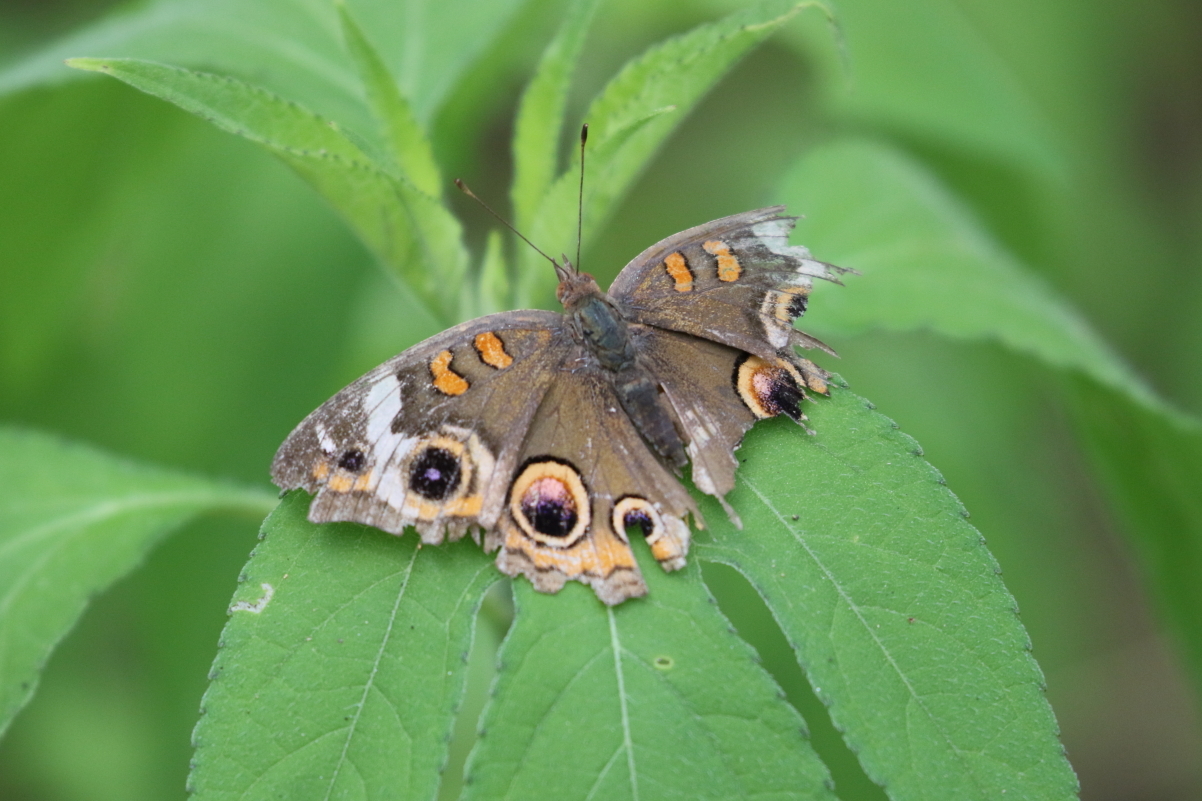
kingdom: Animalia
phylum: Arthropoda
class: Insecta
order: Lepidoptera
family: Nymphalidae
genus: Junonia
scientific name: Junonia coenia
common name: Common buckeye
